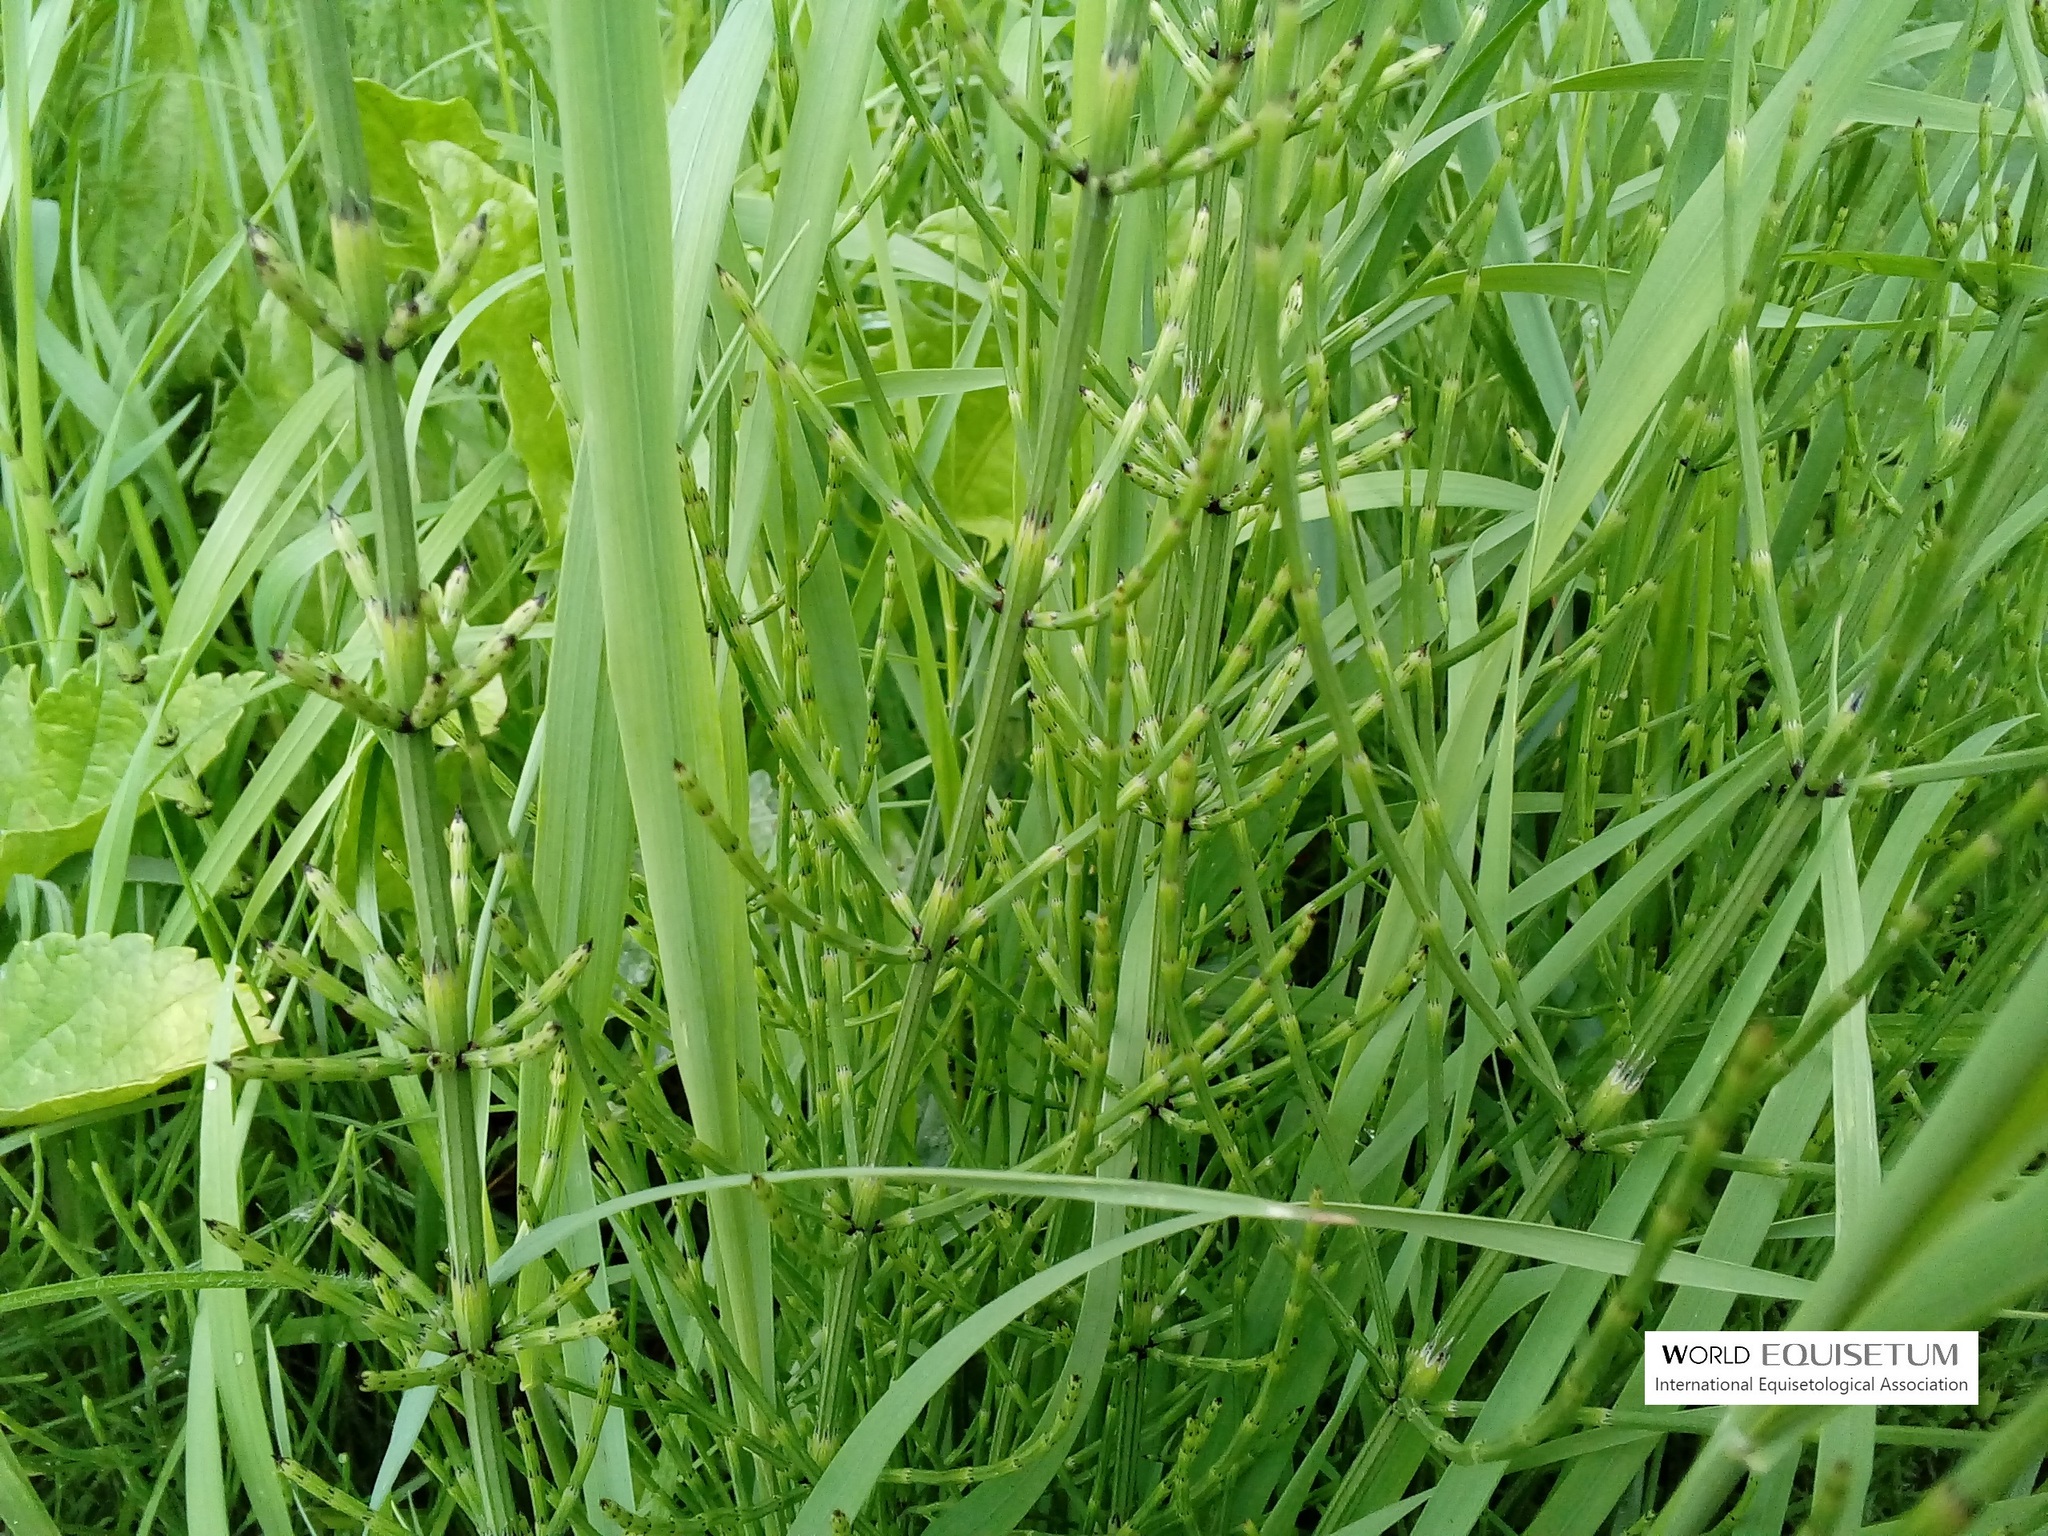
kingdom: Plantae
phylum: Tracheophyta
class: Polypodiopsida
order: Equisetales
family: Equisetaceae
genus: Equisetum
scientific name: Equisetum palustre
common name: Marsh horsetail
